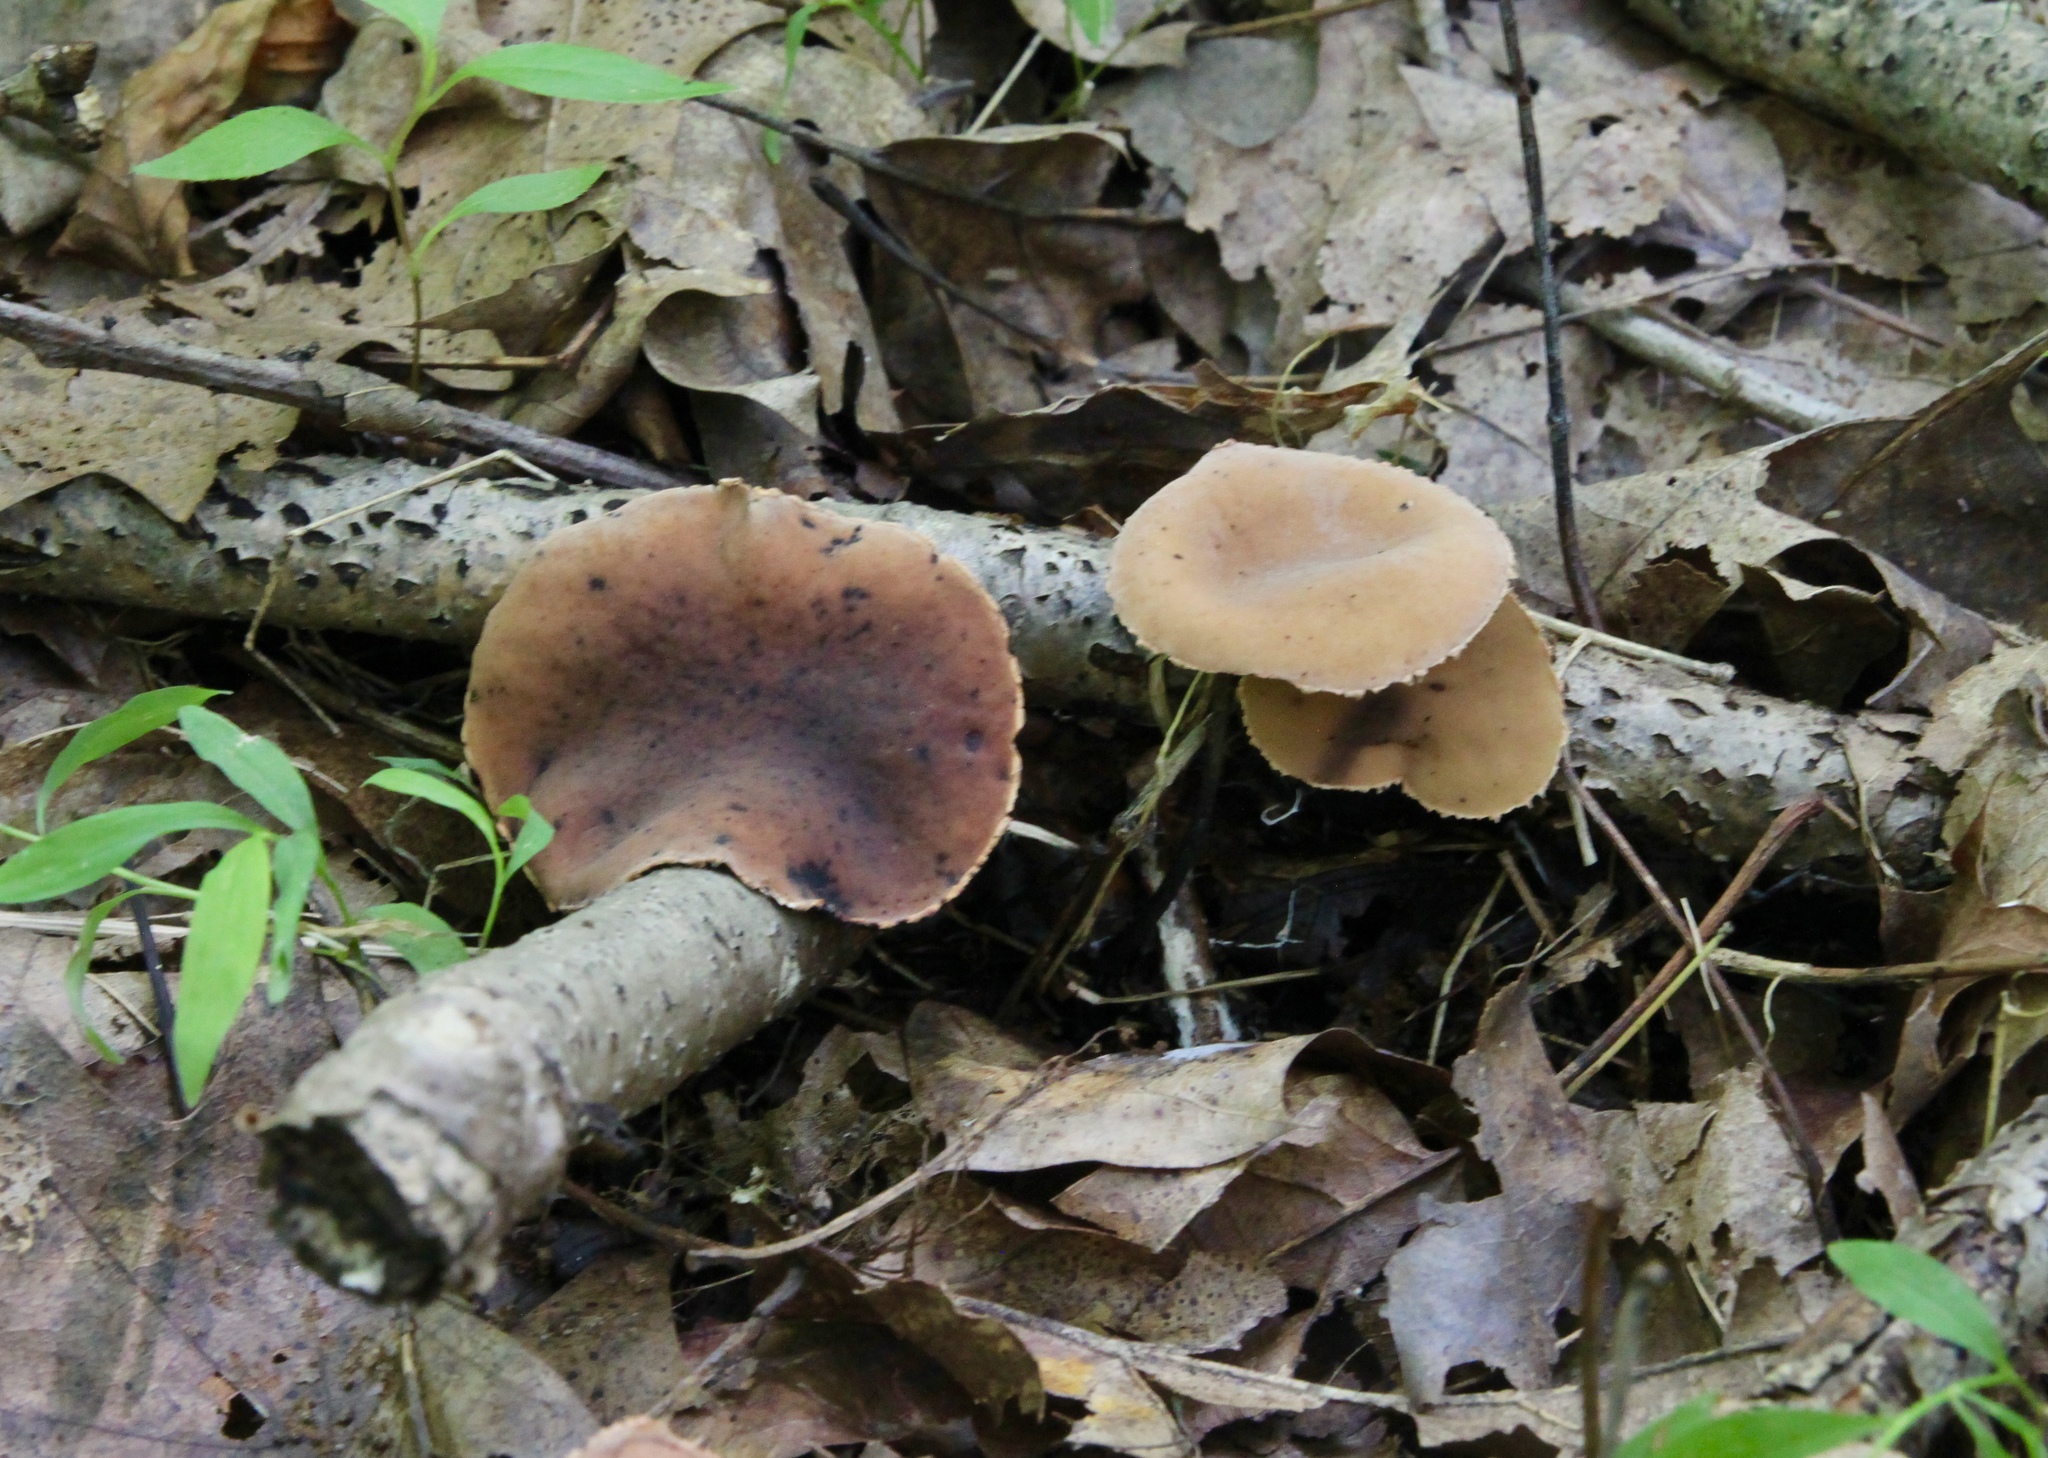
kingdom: Fungi
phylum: Ascomycota
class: Pezizomycetes
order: Pezizales
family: Sarcosomataceae
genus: Galiella
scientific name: Galiella rufa
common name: Hairy rubber cup
